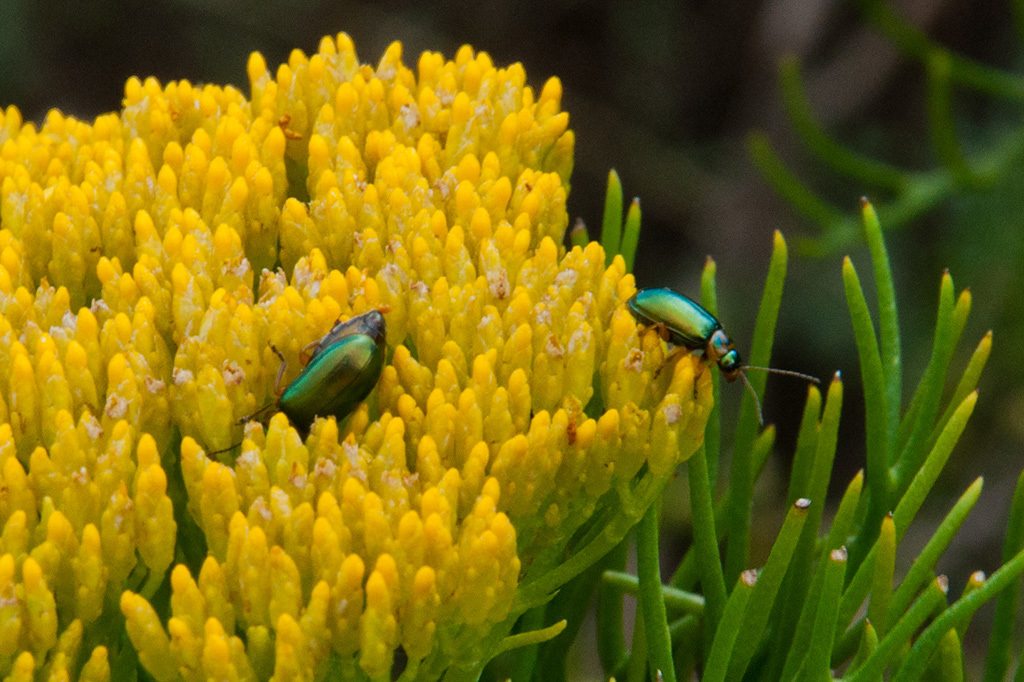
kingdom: Animalia
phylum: Arthropoda
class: Insecta
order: Coleoptera
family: Chrysomelidae
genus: Palaeophylia
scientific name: Palaeophylia
